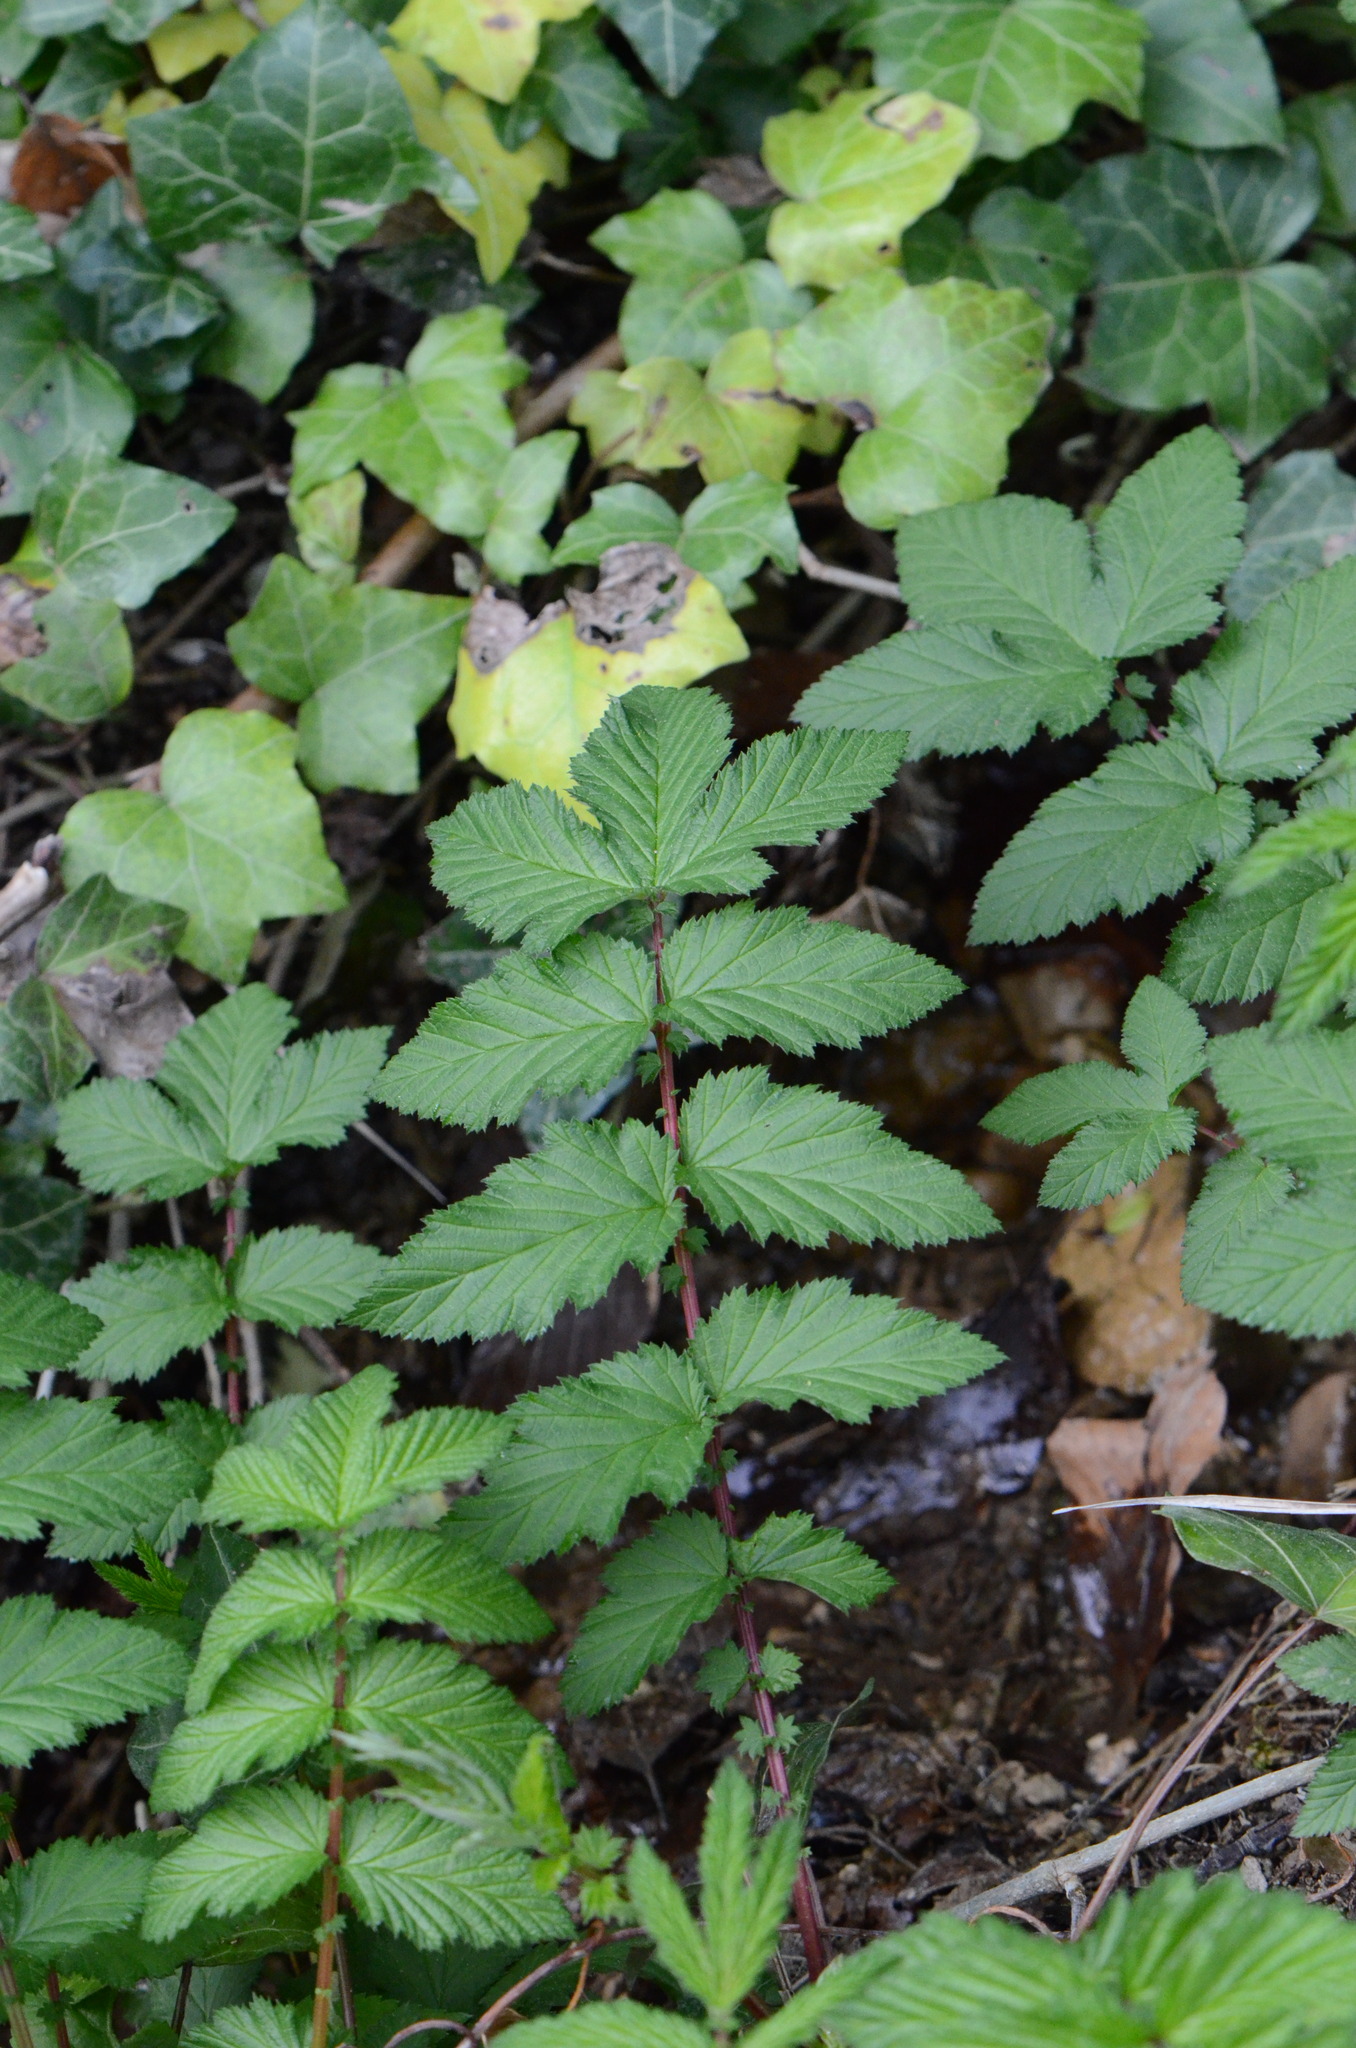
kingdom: Plantae
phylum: Tracheophyta
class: Magnoliopsida
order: Rosales
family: Rosaceae
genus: Filipendula
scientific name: Filipendula ulmaria
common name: Meadowsweet
